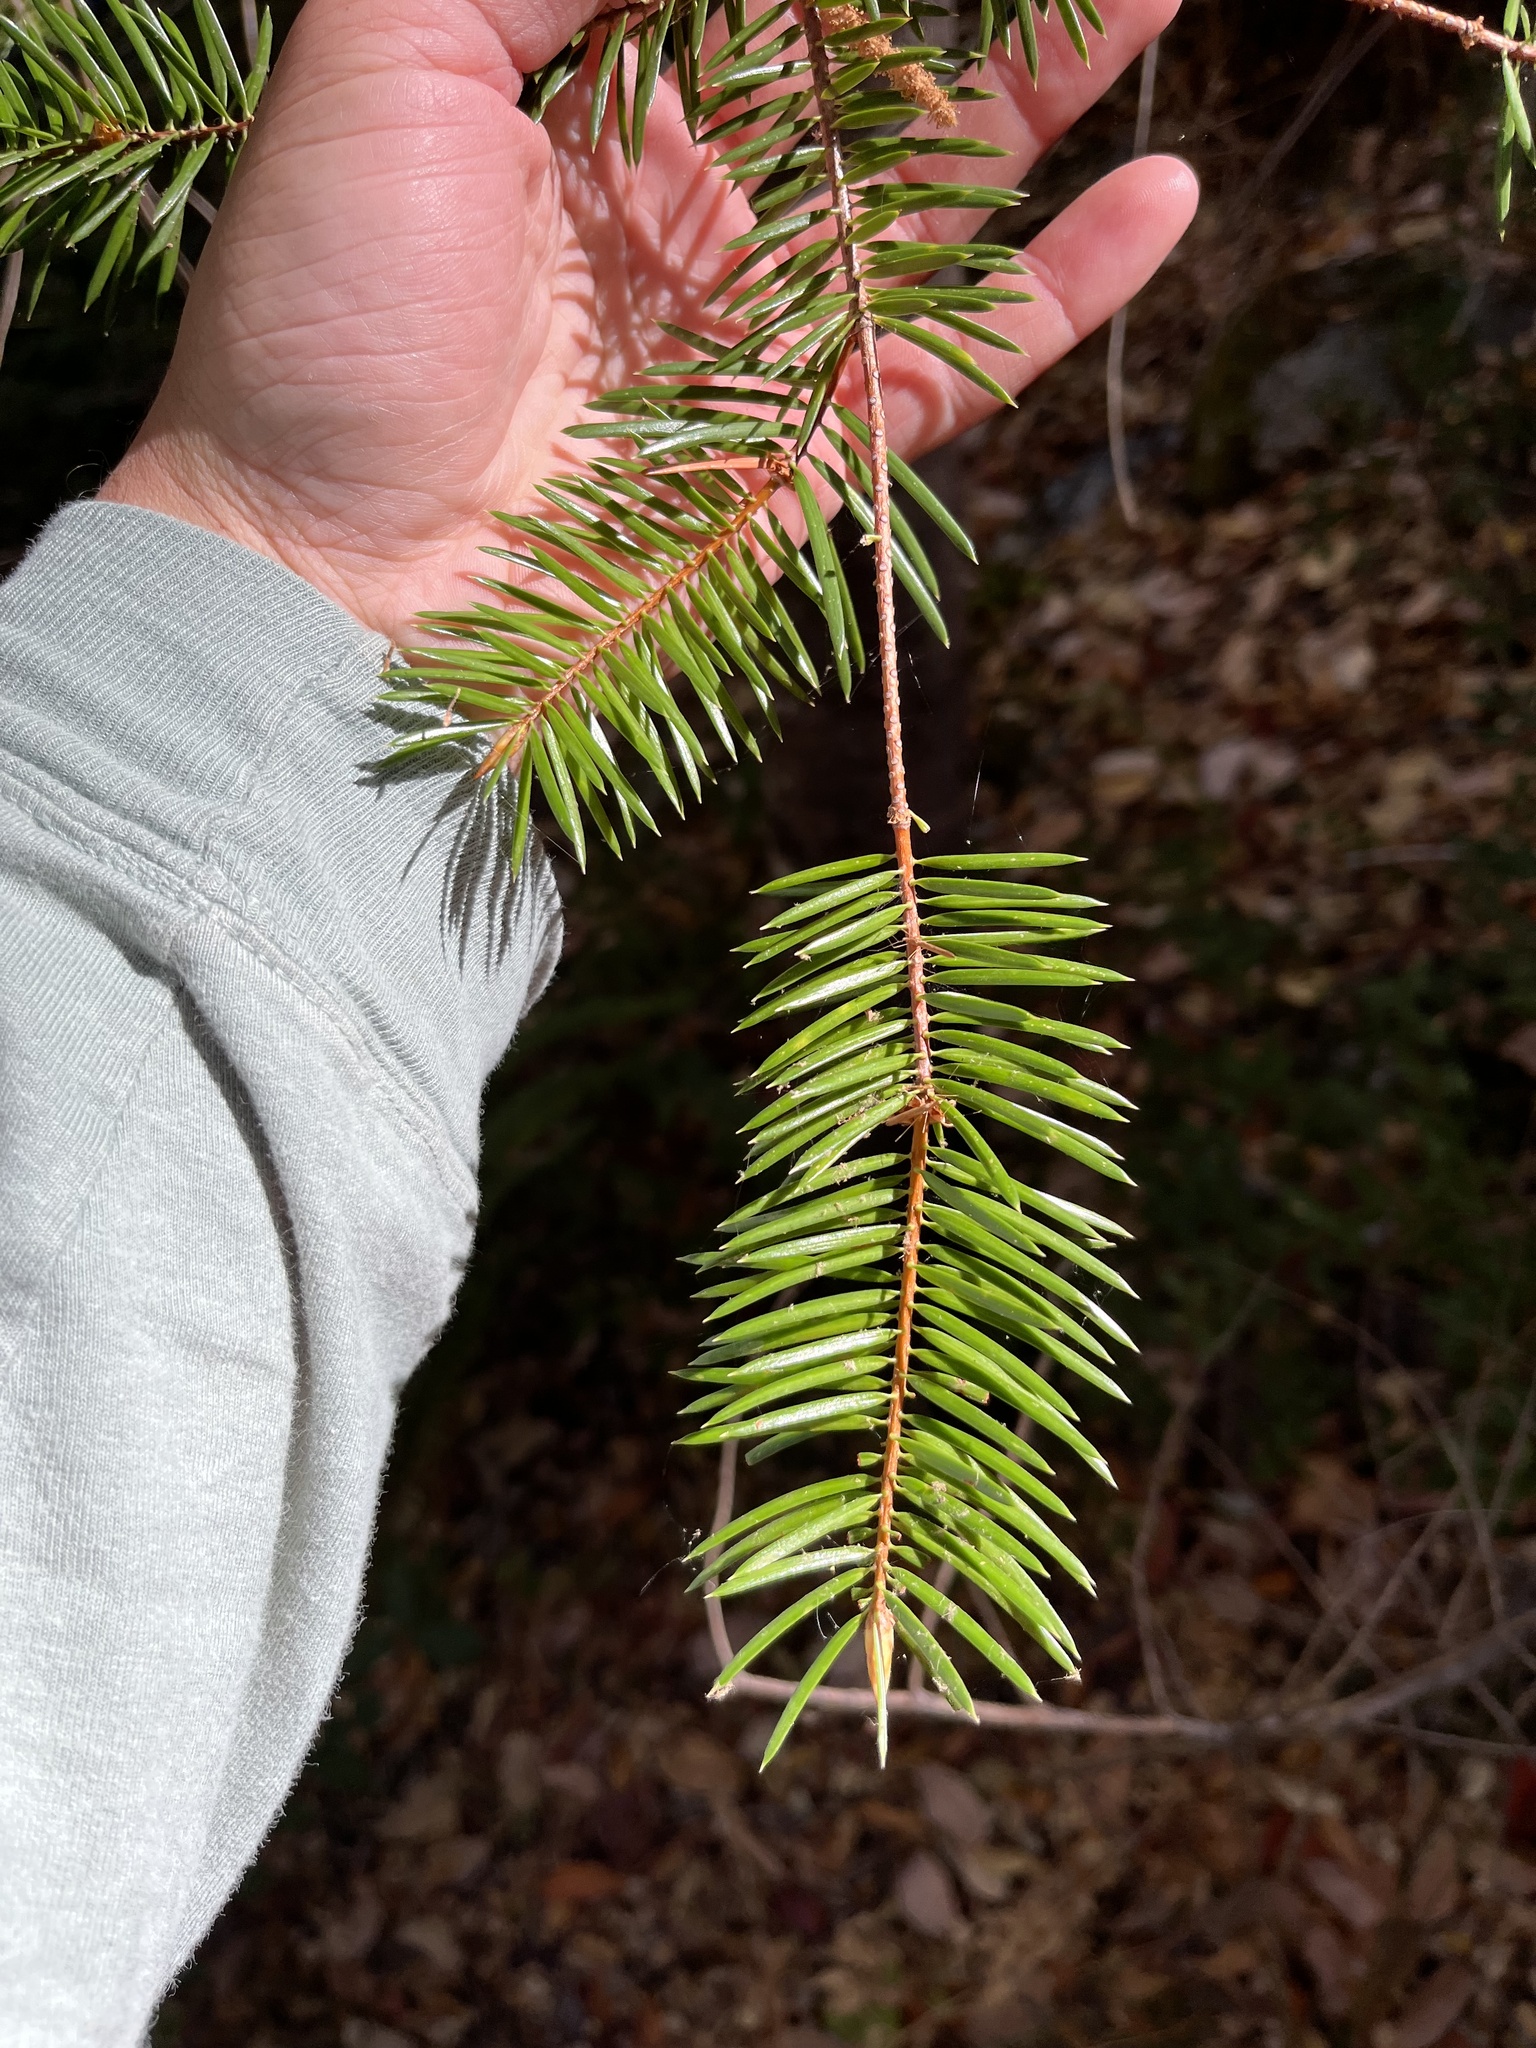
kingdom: Plantae
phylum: Tracheophyta
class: Pinopsida
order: Pinales
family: Pinaceae
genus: Abies
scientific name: Abies bracteata
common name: Bristlecone fir
